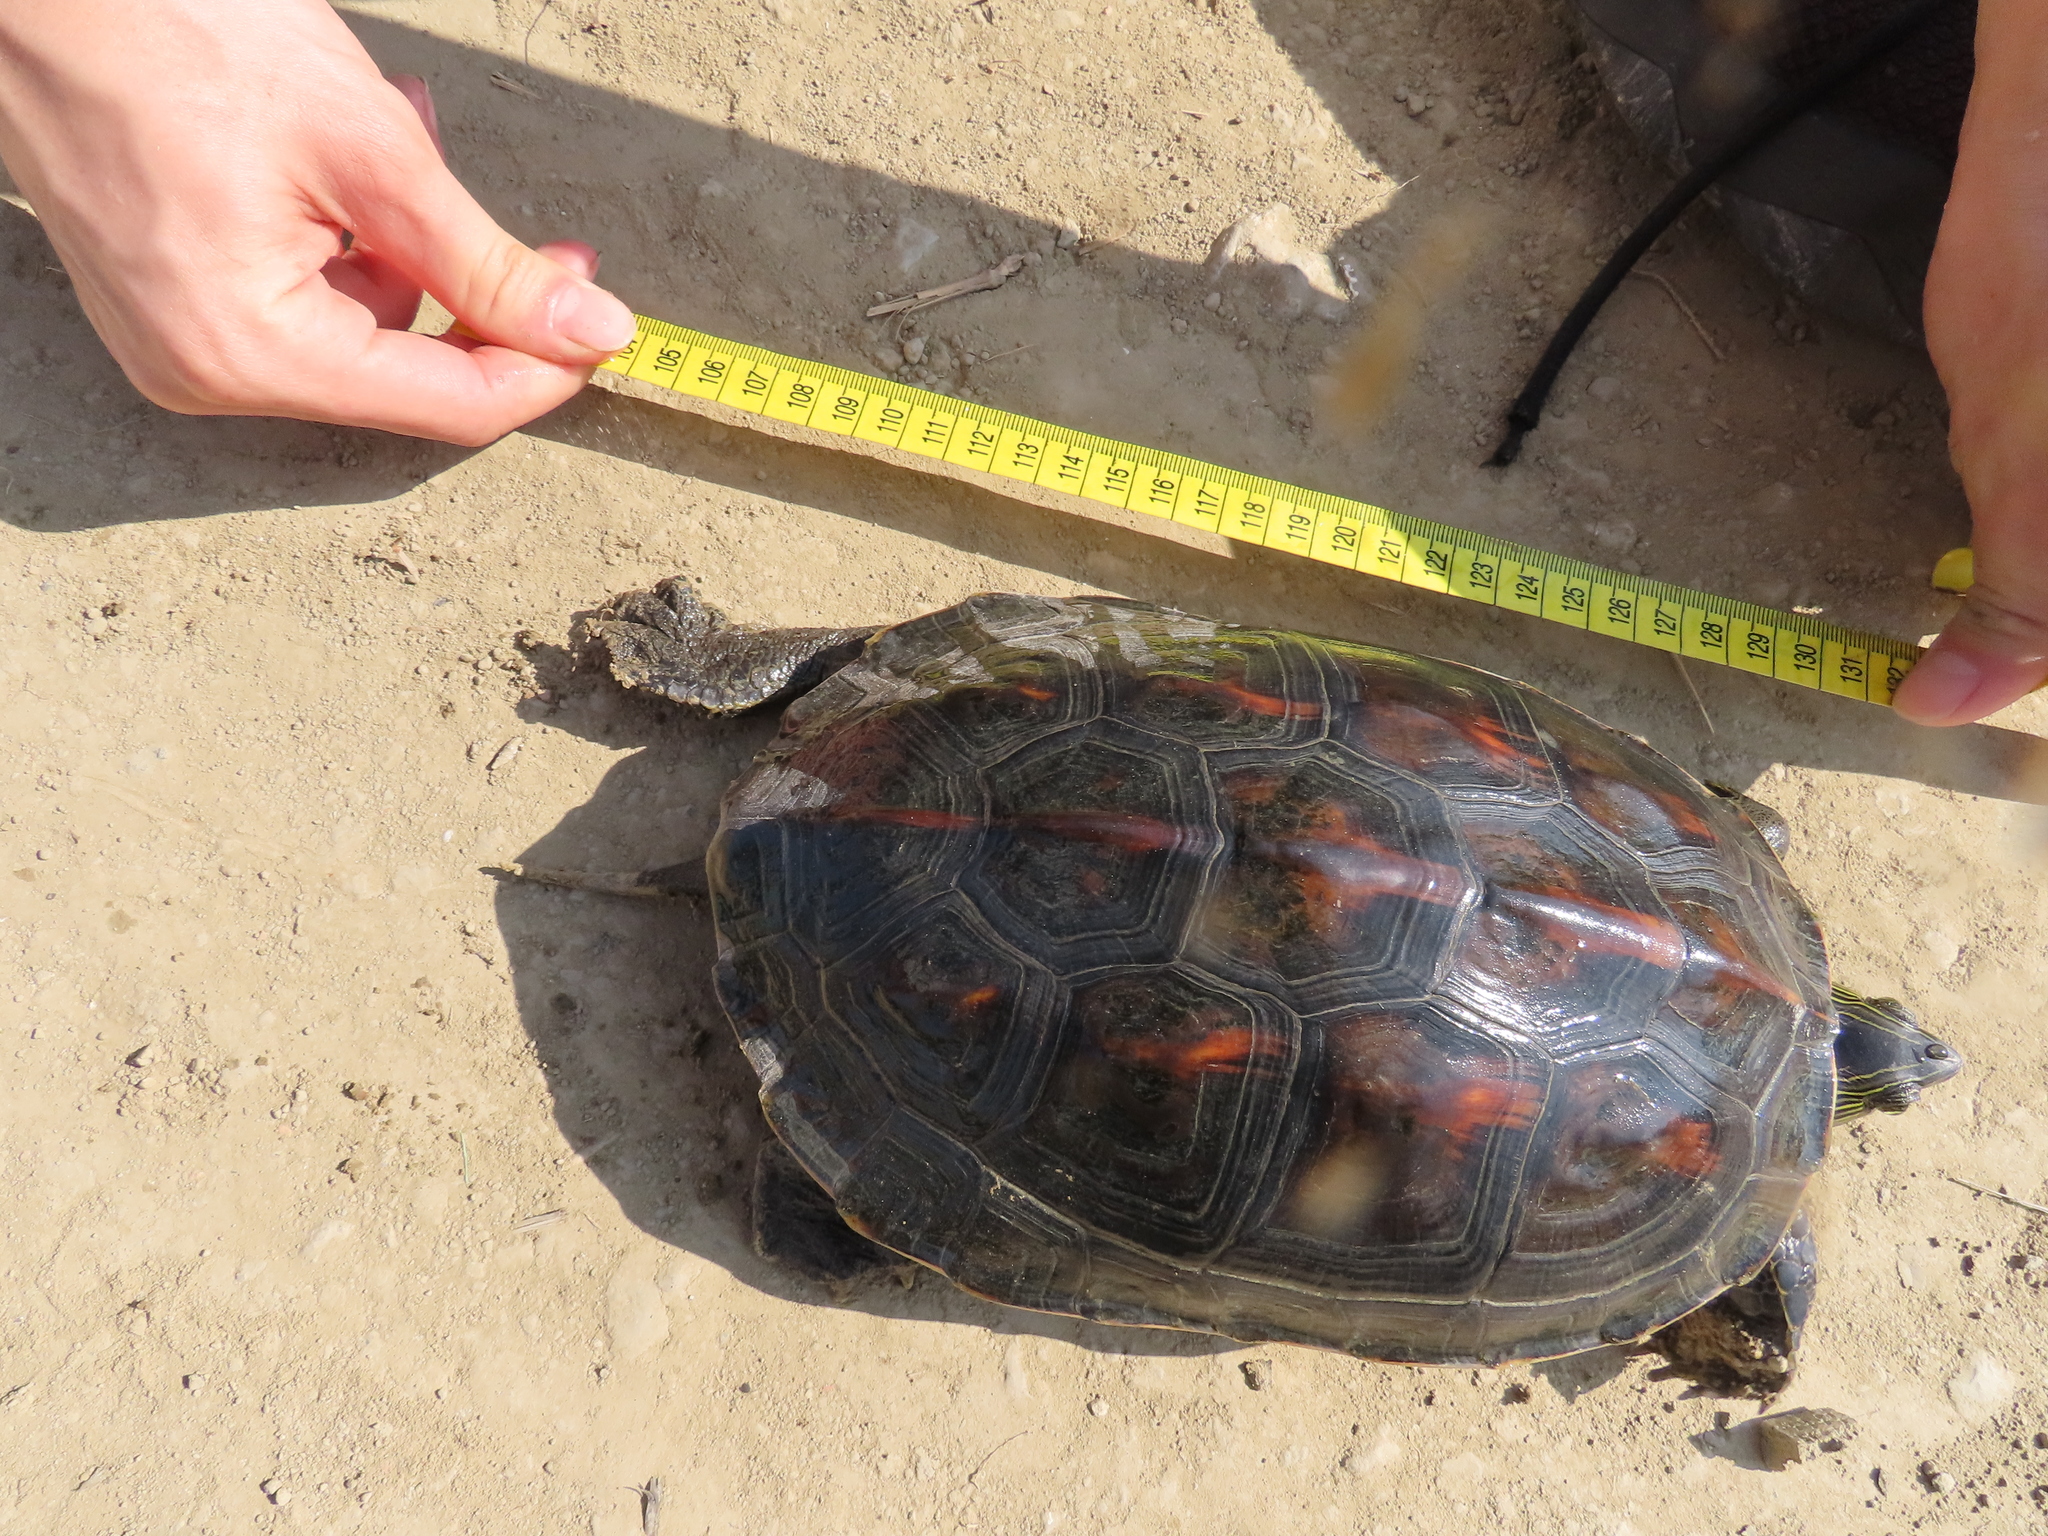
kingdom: Animalia
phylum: Chordata
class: Testudines
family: Geoemydidae
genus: Mauremys
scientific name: Mauremys sinensis
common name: Chinese stripe-necked turtle
